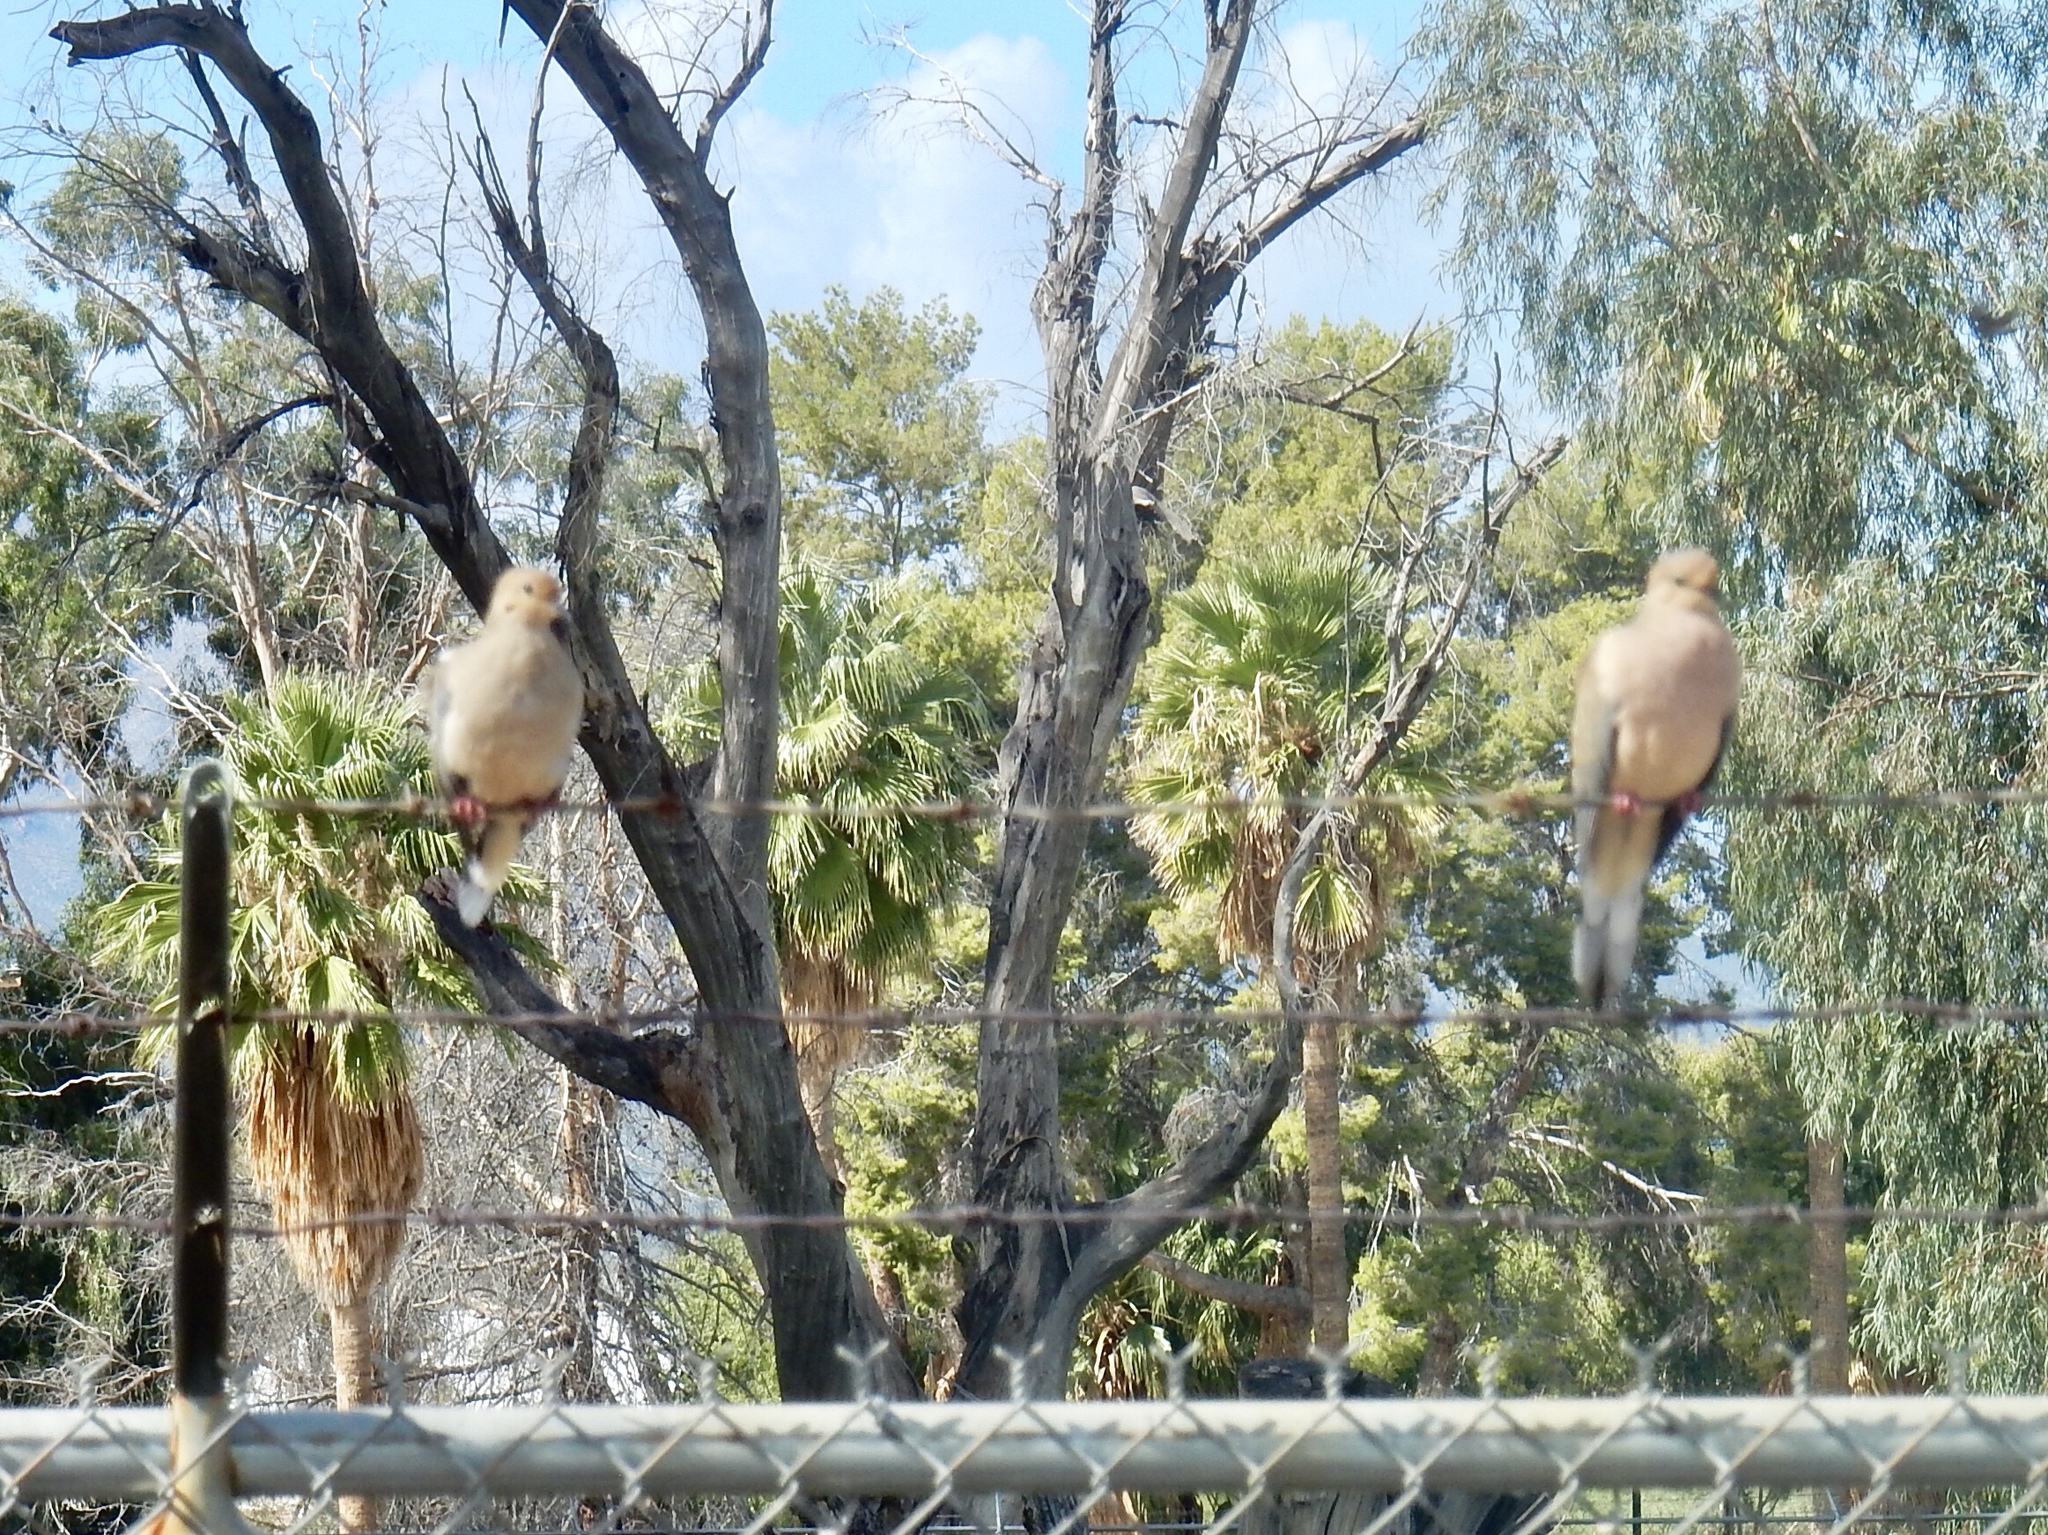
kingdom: Animalia
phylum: Chordata
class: Aves
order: Columbiformes
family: Columbidae
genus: Zenaida
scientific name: Zenaida macroura
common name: Mourning dove
